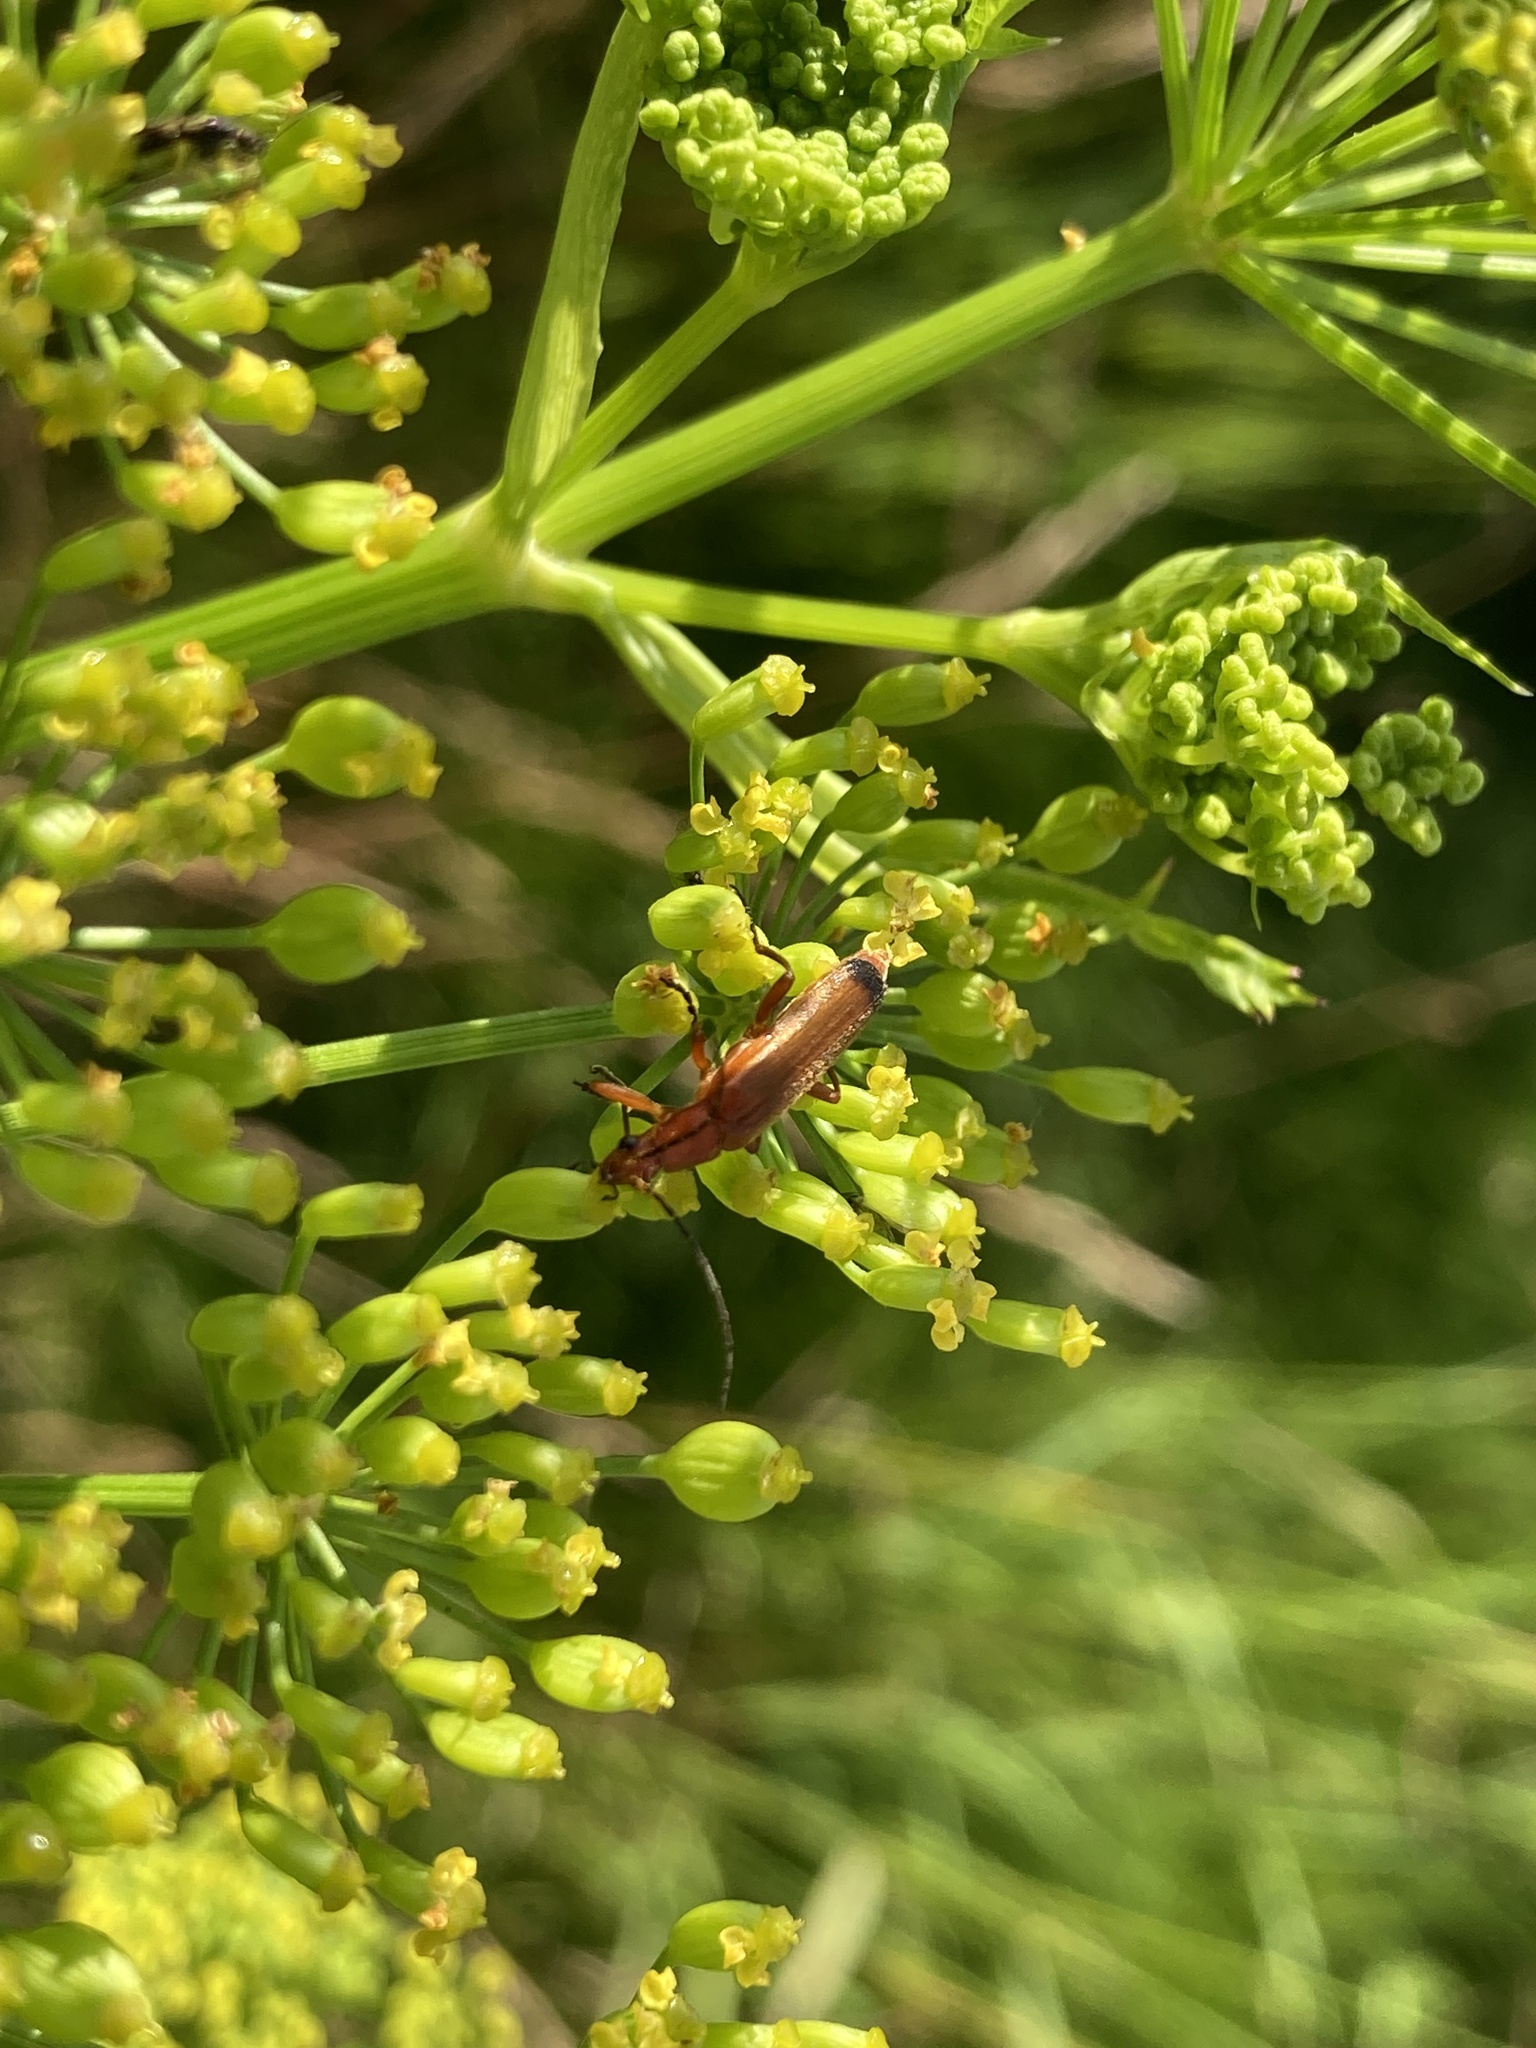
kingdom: Animalia
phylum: Arthropoda
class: Insecta
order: Coleoptera
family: Cantharidae
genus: Rhagonycha
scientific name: Rhagonycha fulva
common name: Common red soldier beetle
